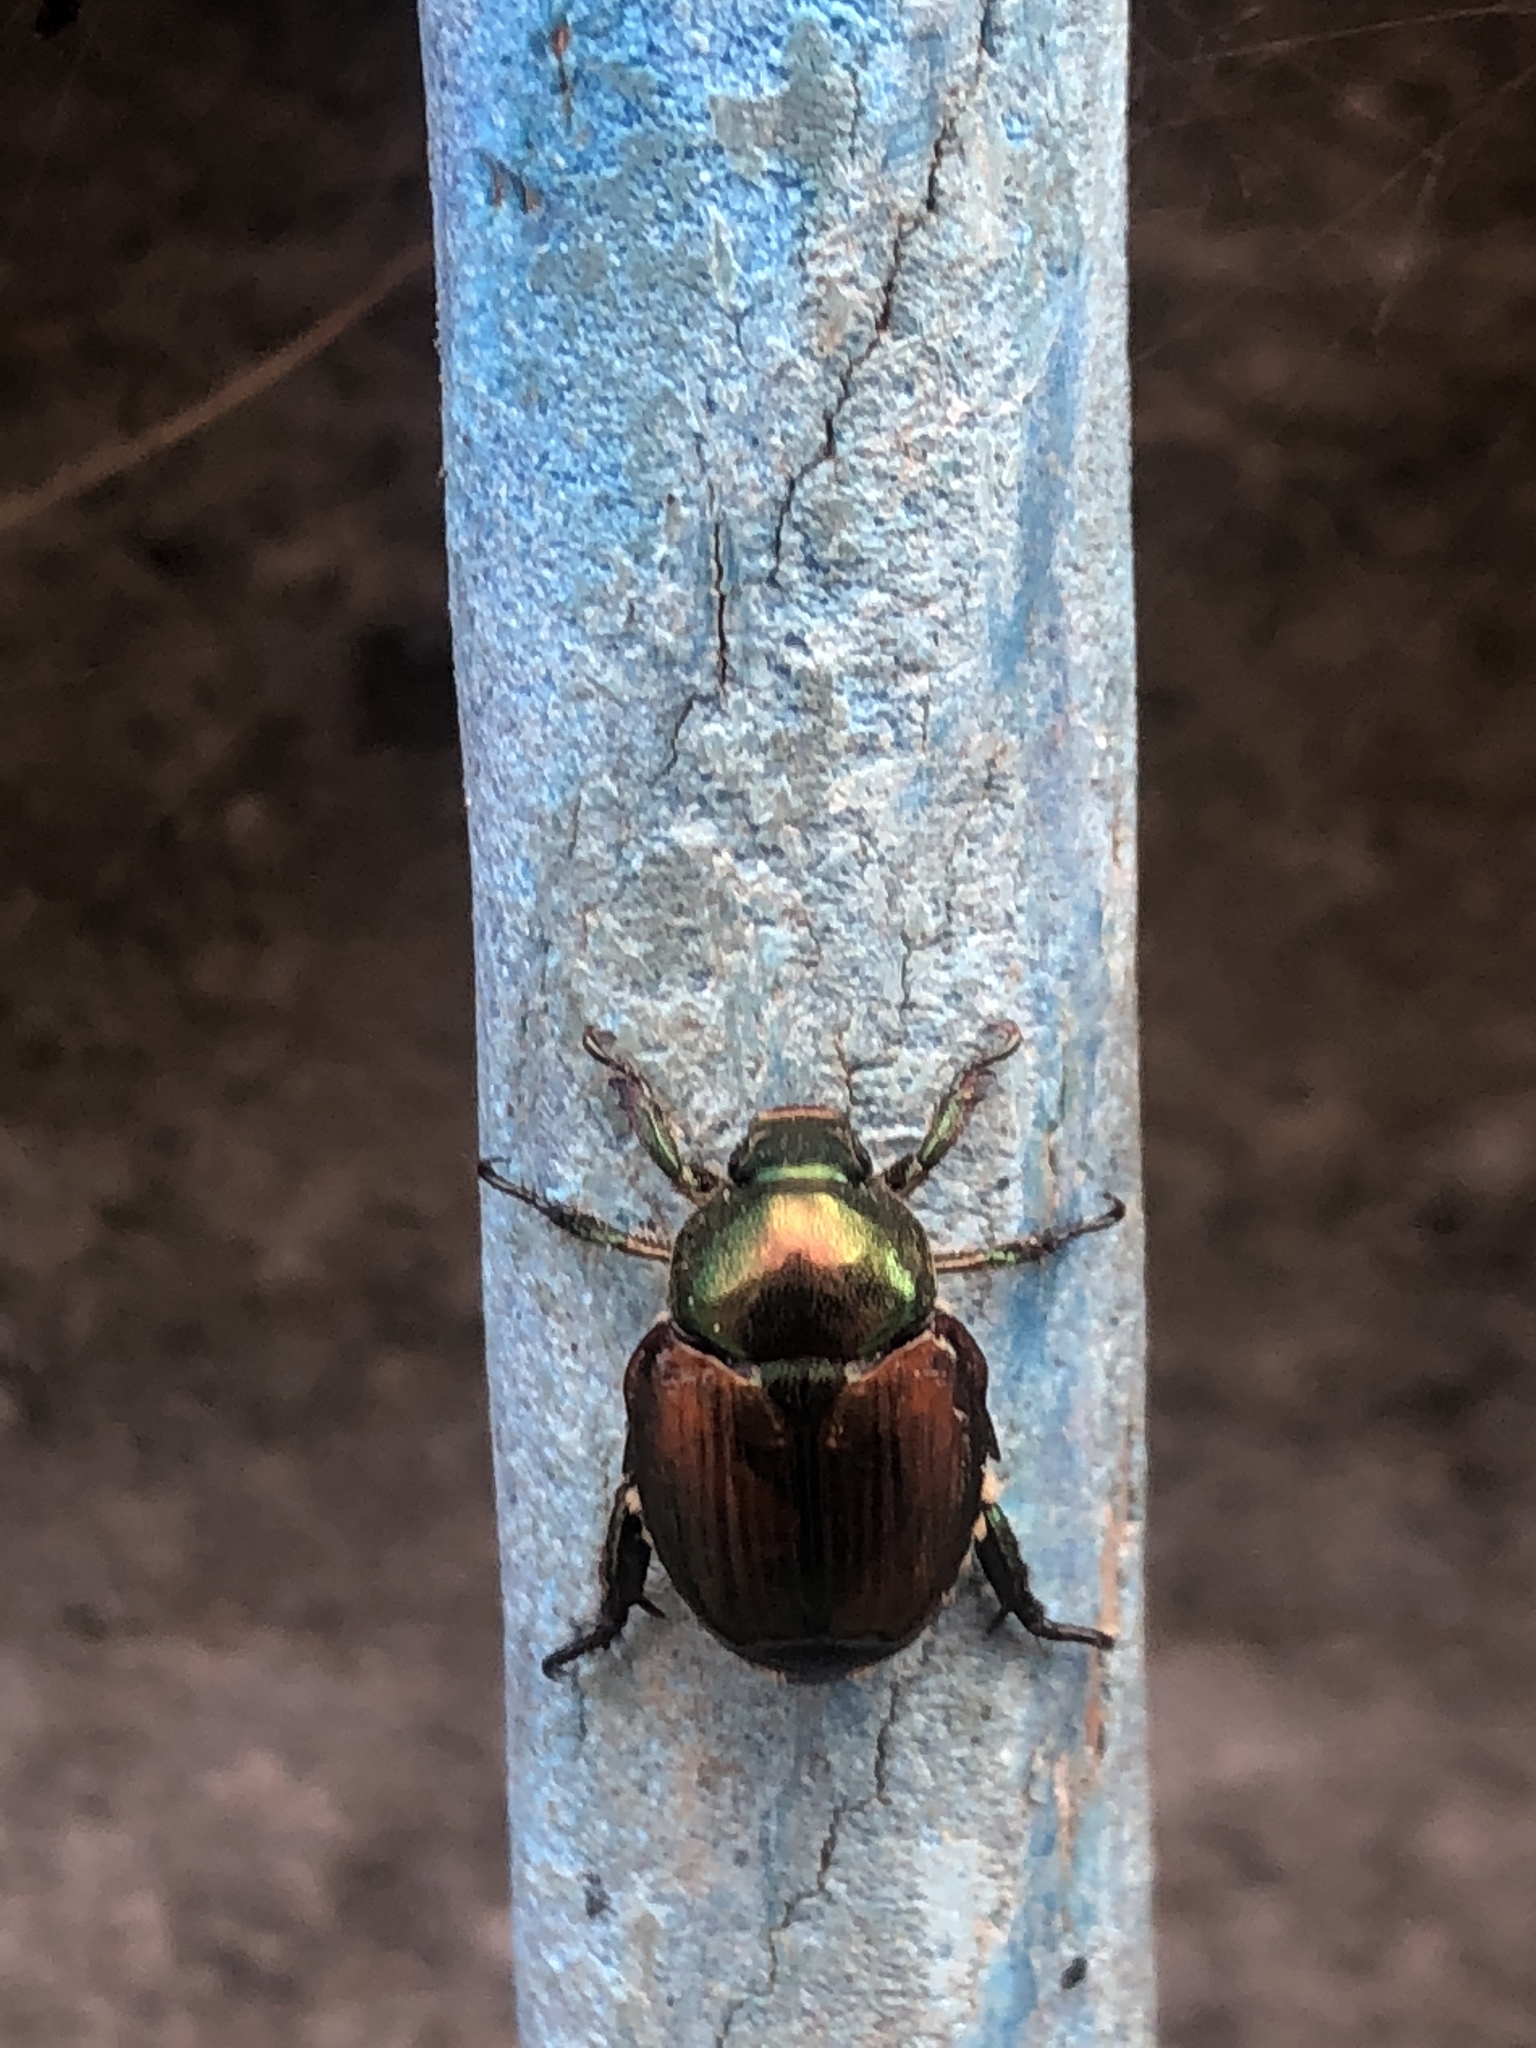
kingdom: Animalia
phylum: Arthropoda
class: Insecta
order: Coleoptera
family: Scarabaeidae
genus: Popillia
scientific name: Popillia japonica
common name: Japanese beetle
